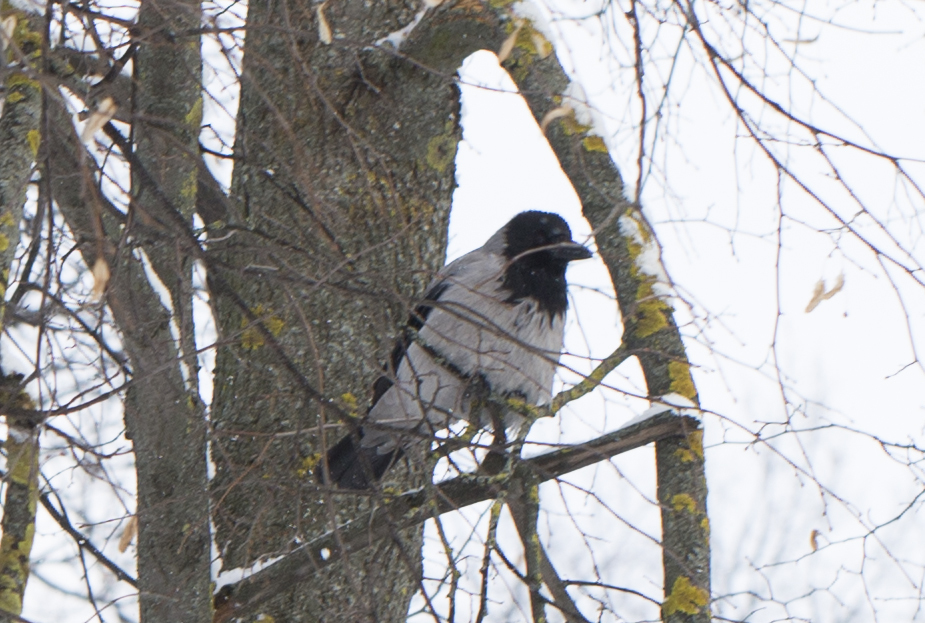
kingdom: Animalia
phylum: Chordata
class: Aves
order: Passeriformes
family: Corvidae
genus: Corvus
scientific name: Corvus cornix
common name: Hooded crow
